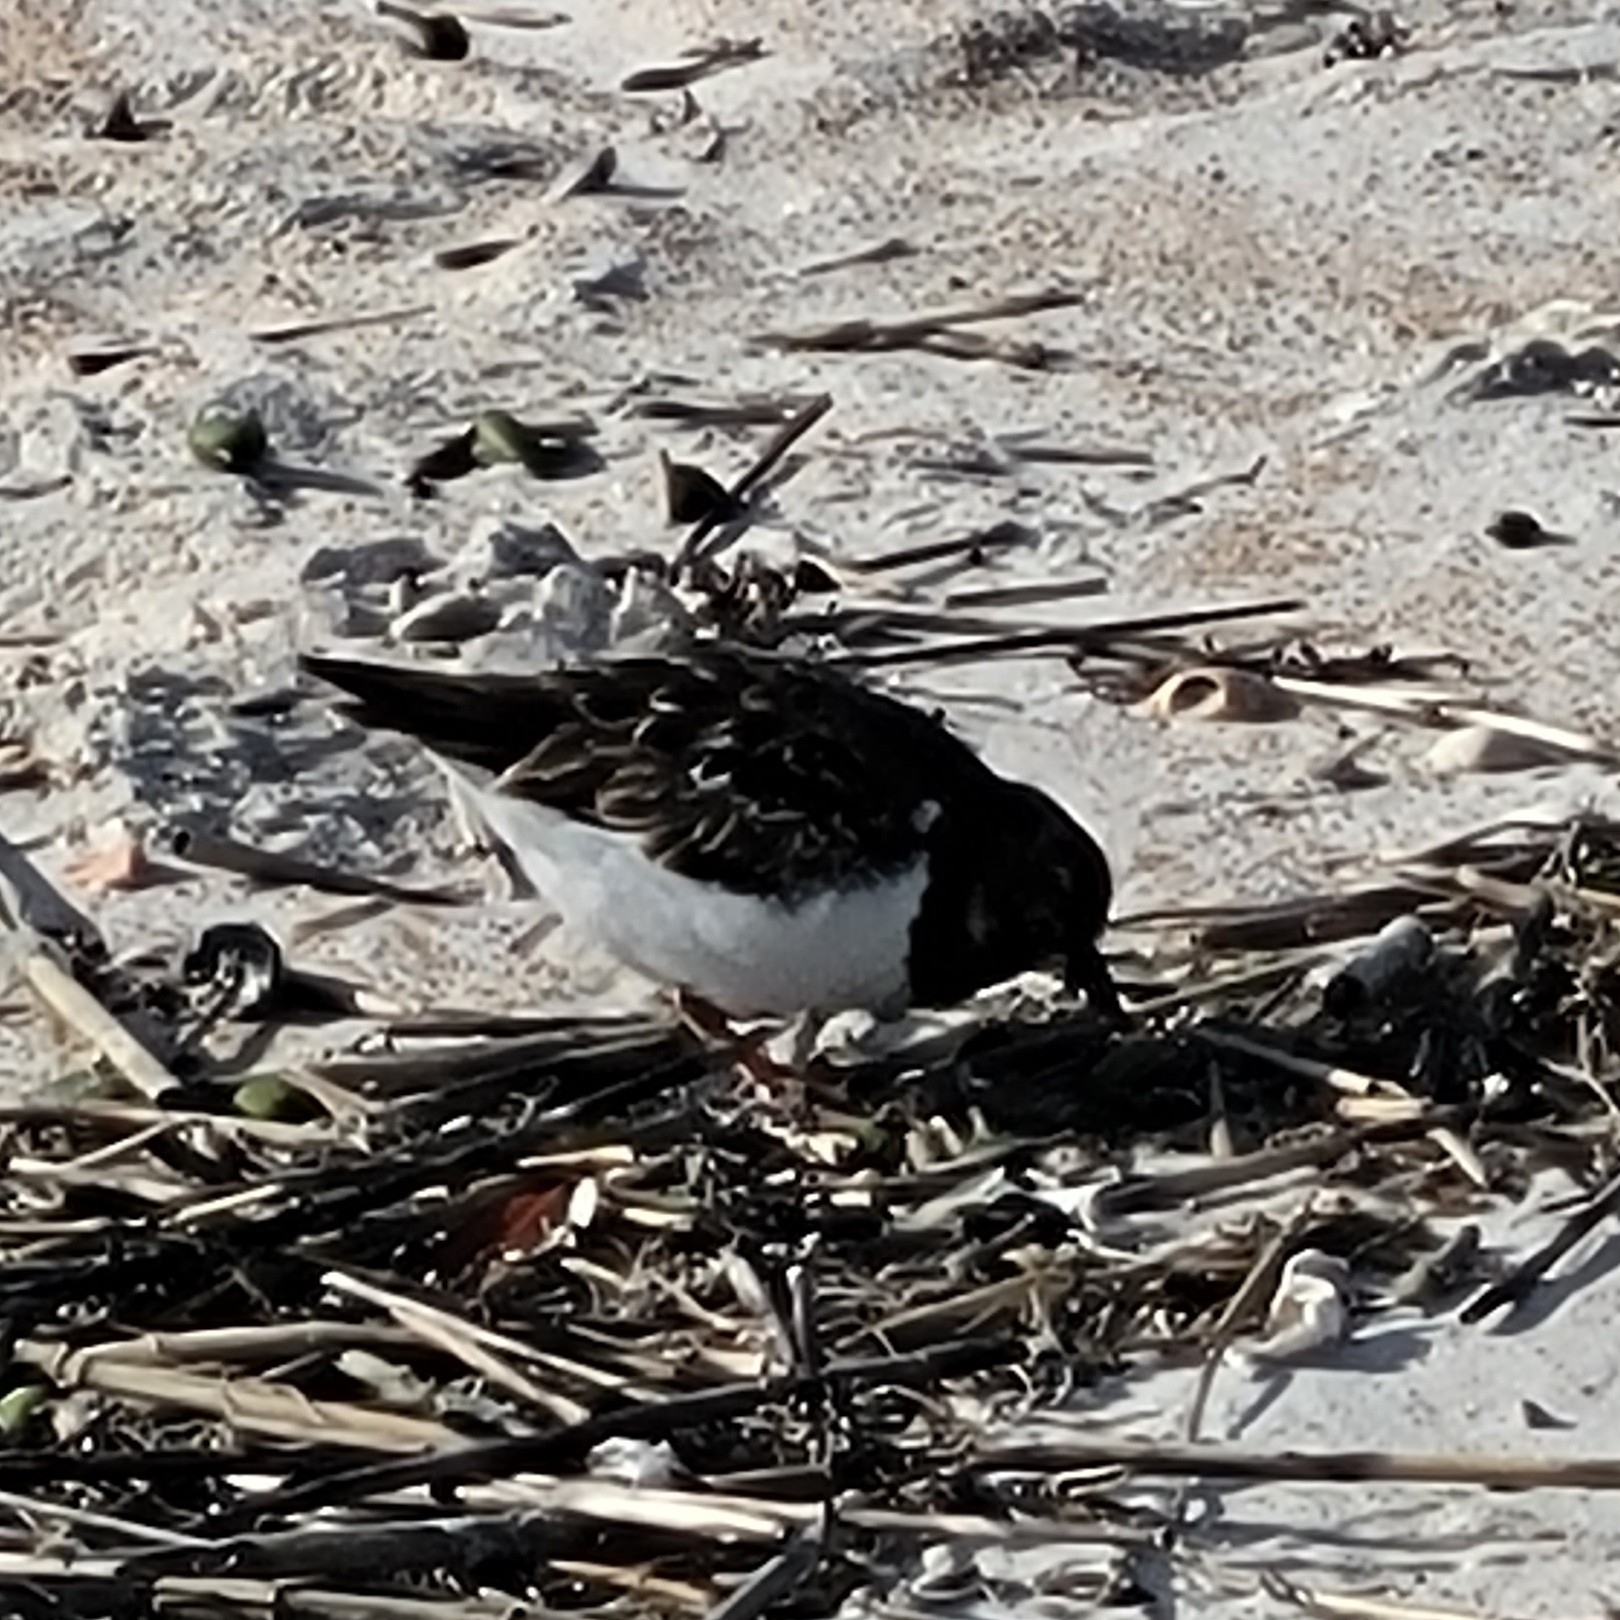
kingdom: Animalia
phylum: Chordata
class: Aves
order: Charadriiformes
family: Scolopacidae
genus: Arenaria
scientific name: Arenaria interpres
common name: Ruddy turnstone
